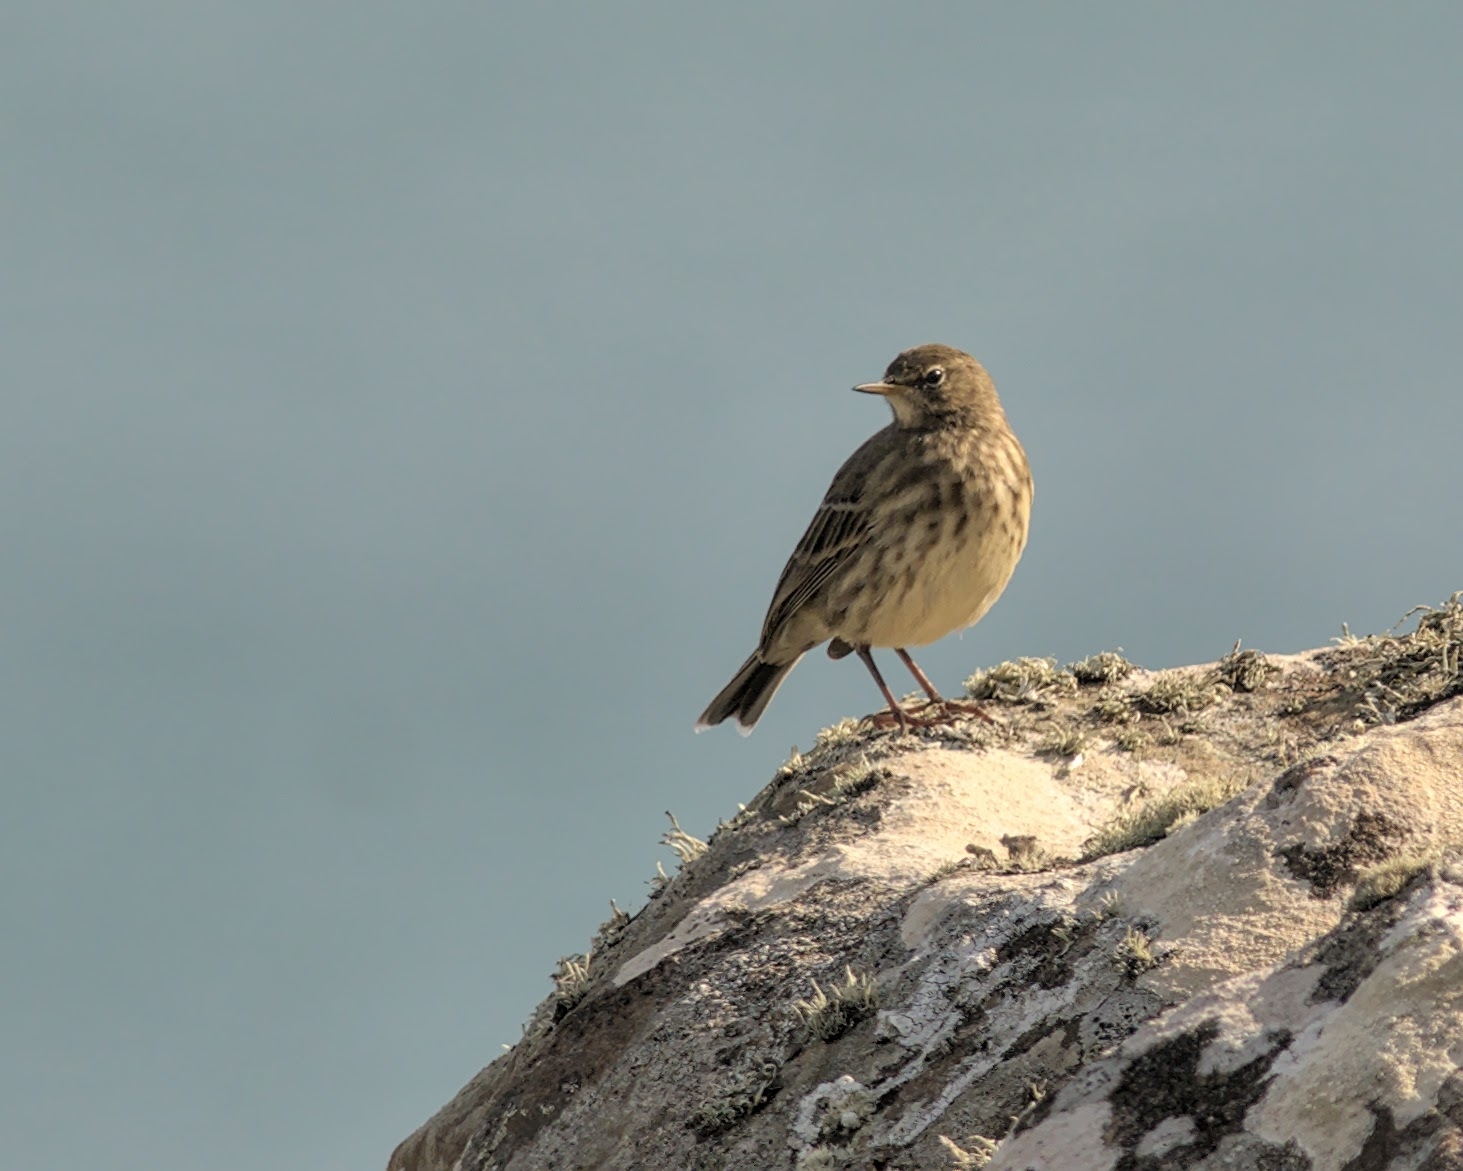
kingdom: Animalia
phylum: Chordata
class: Aves
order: Passeriformes
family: Motacillidae
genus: Anthus
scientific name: Anthus petrosus
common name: Eurasian rock pipit
